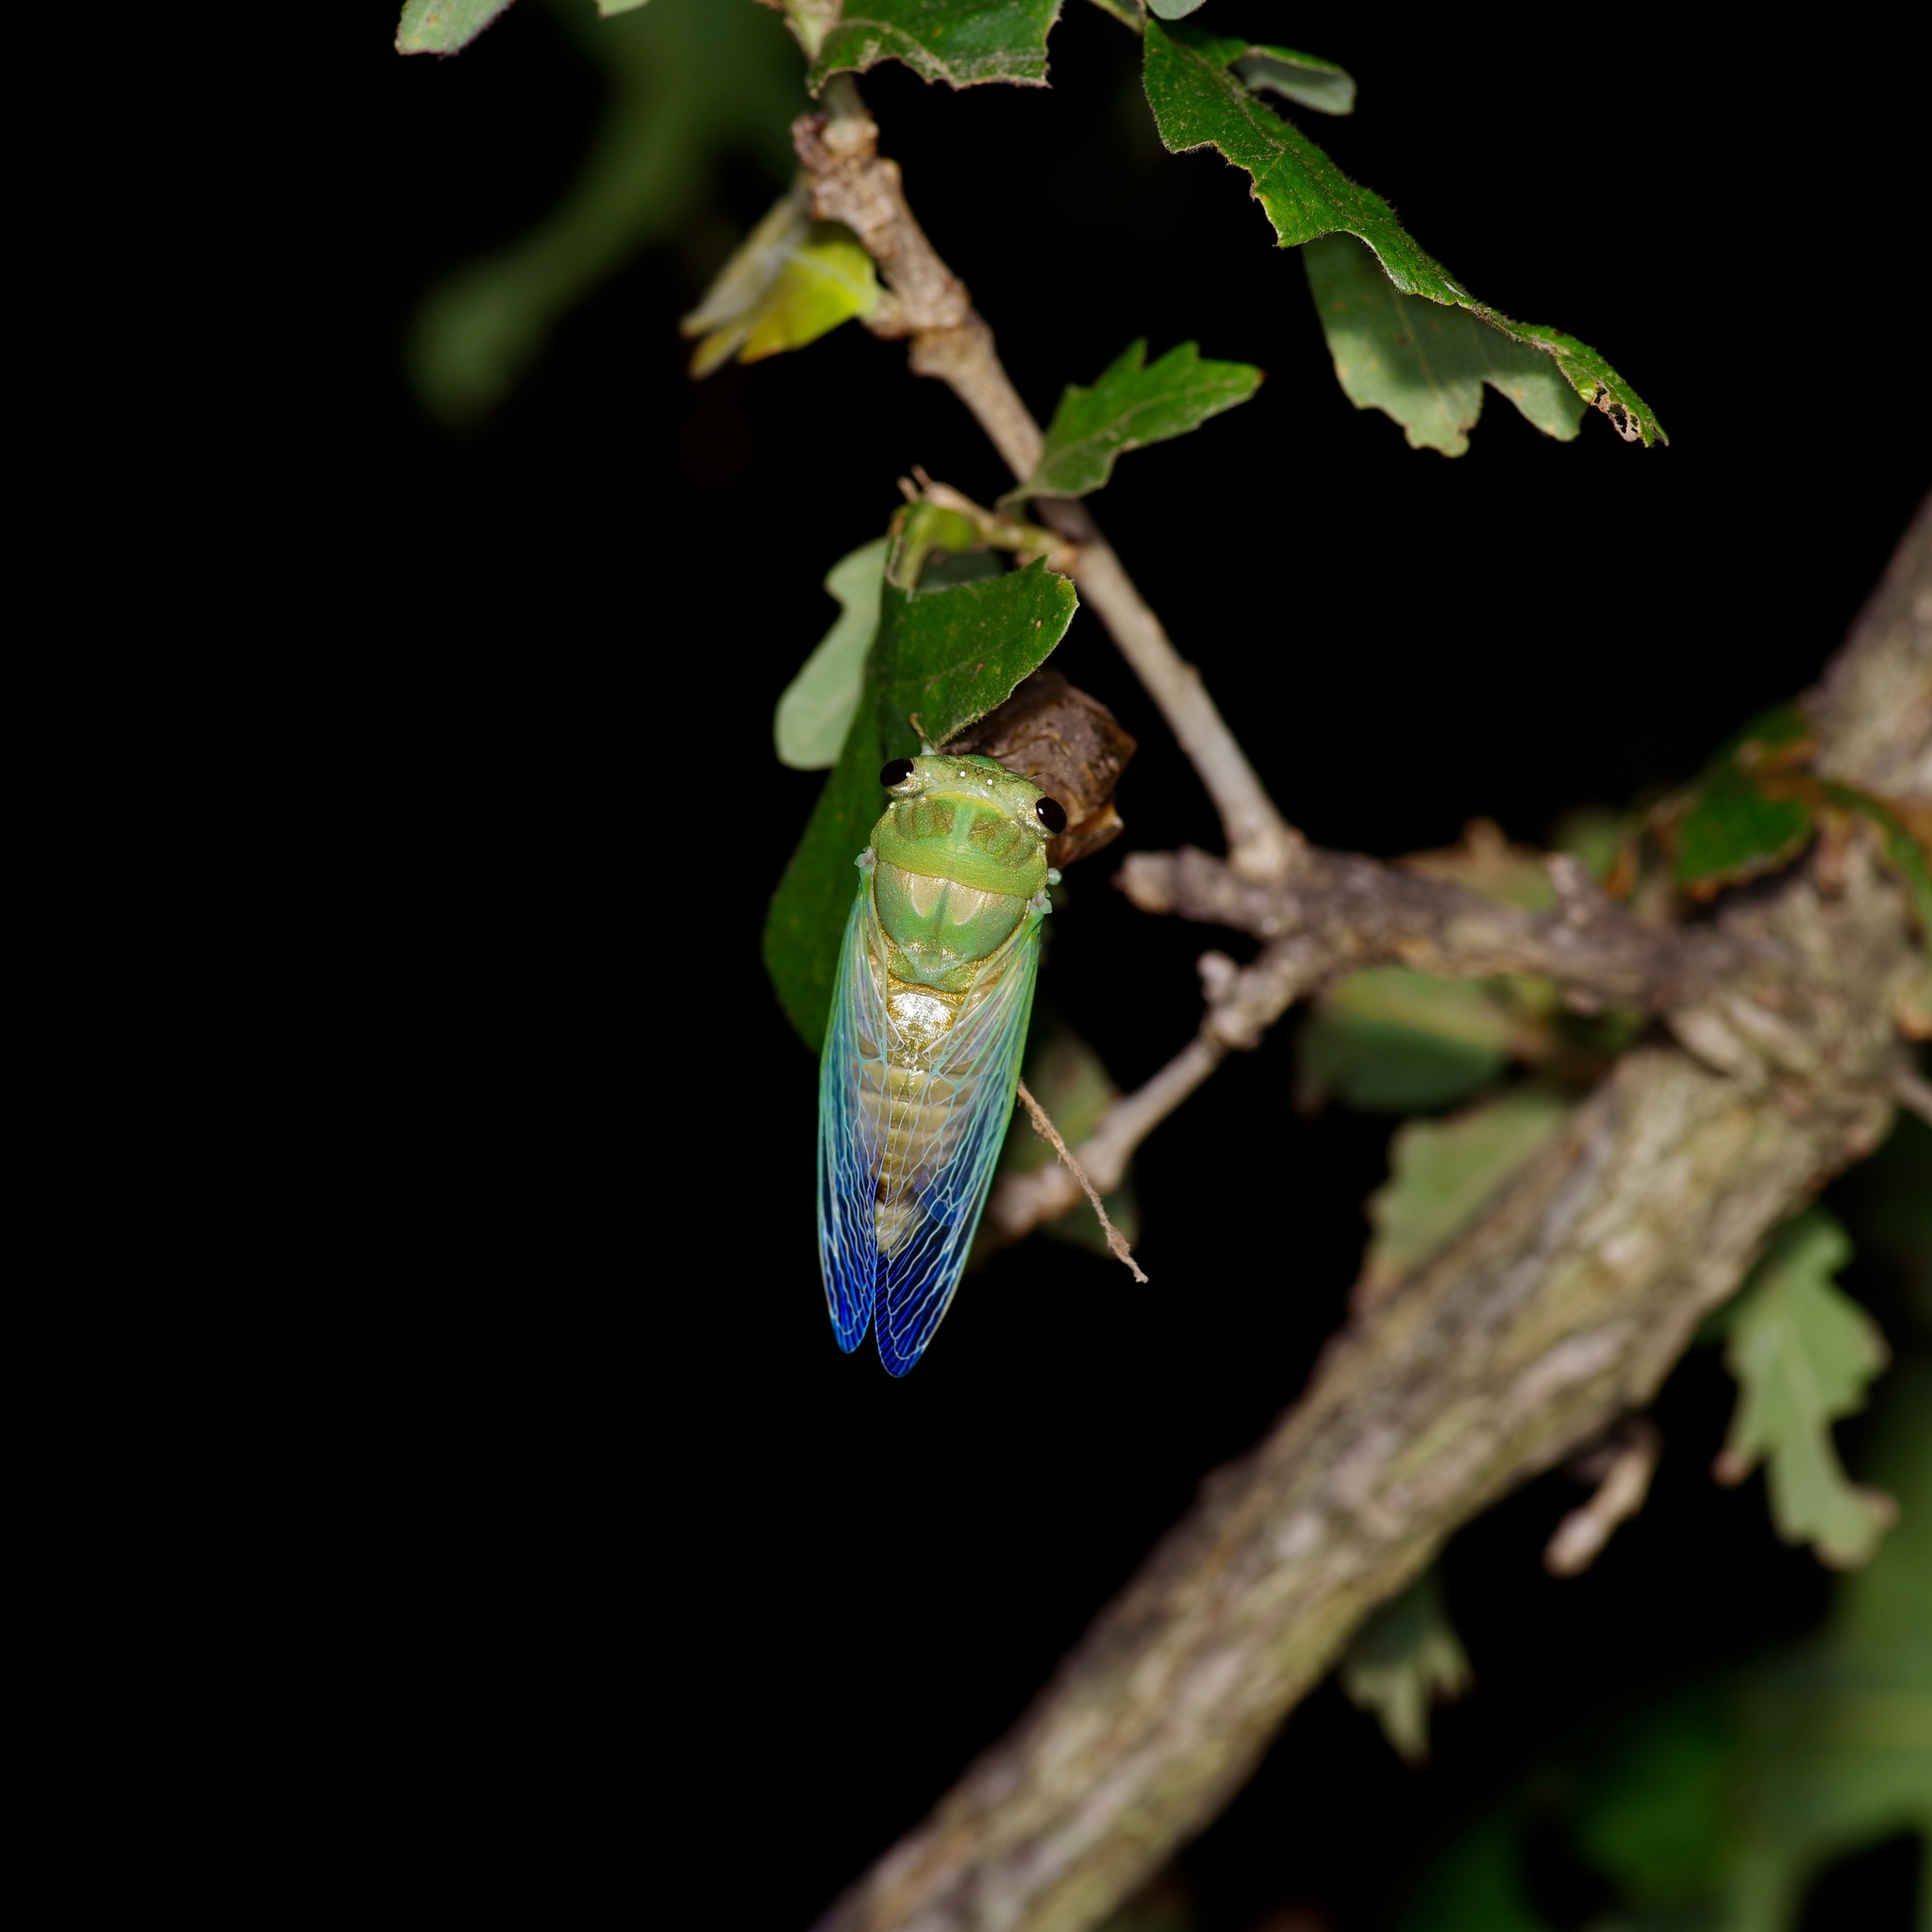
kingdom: Animalia
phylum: Arthropoda
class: Insecta
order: Hemiptera
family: Cicadidae
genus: Neotibicen
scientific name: Neotibicen superbus
